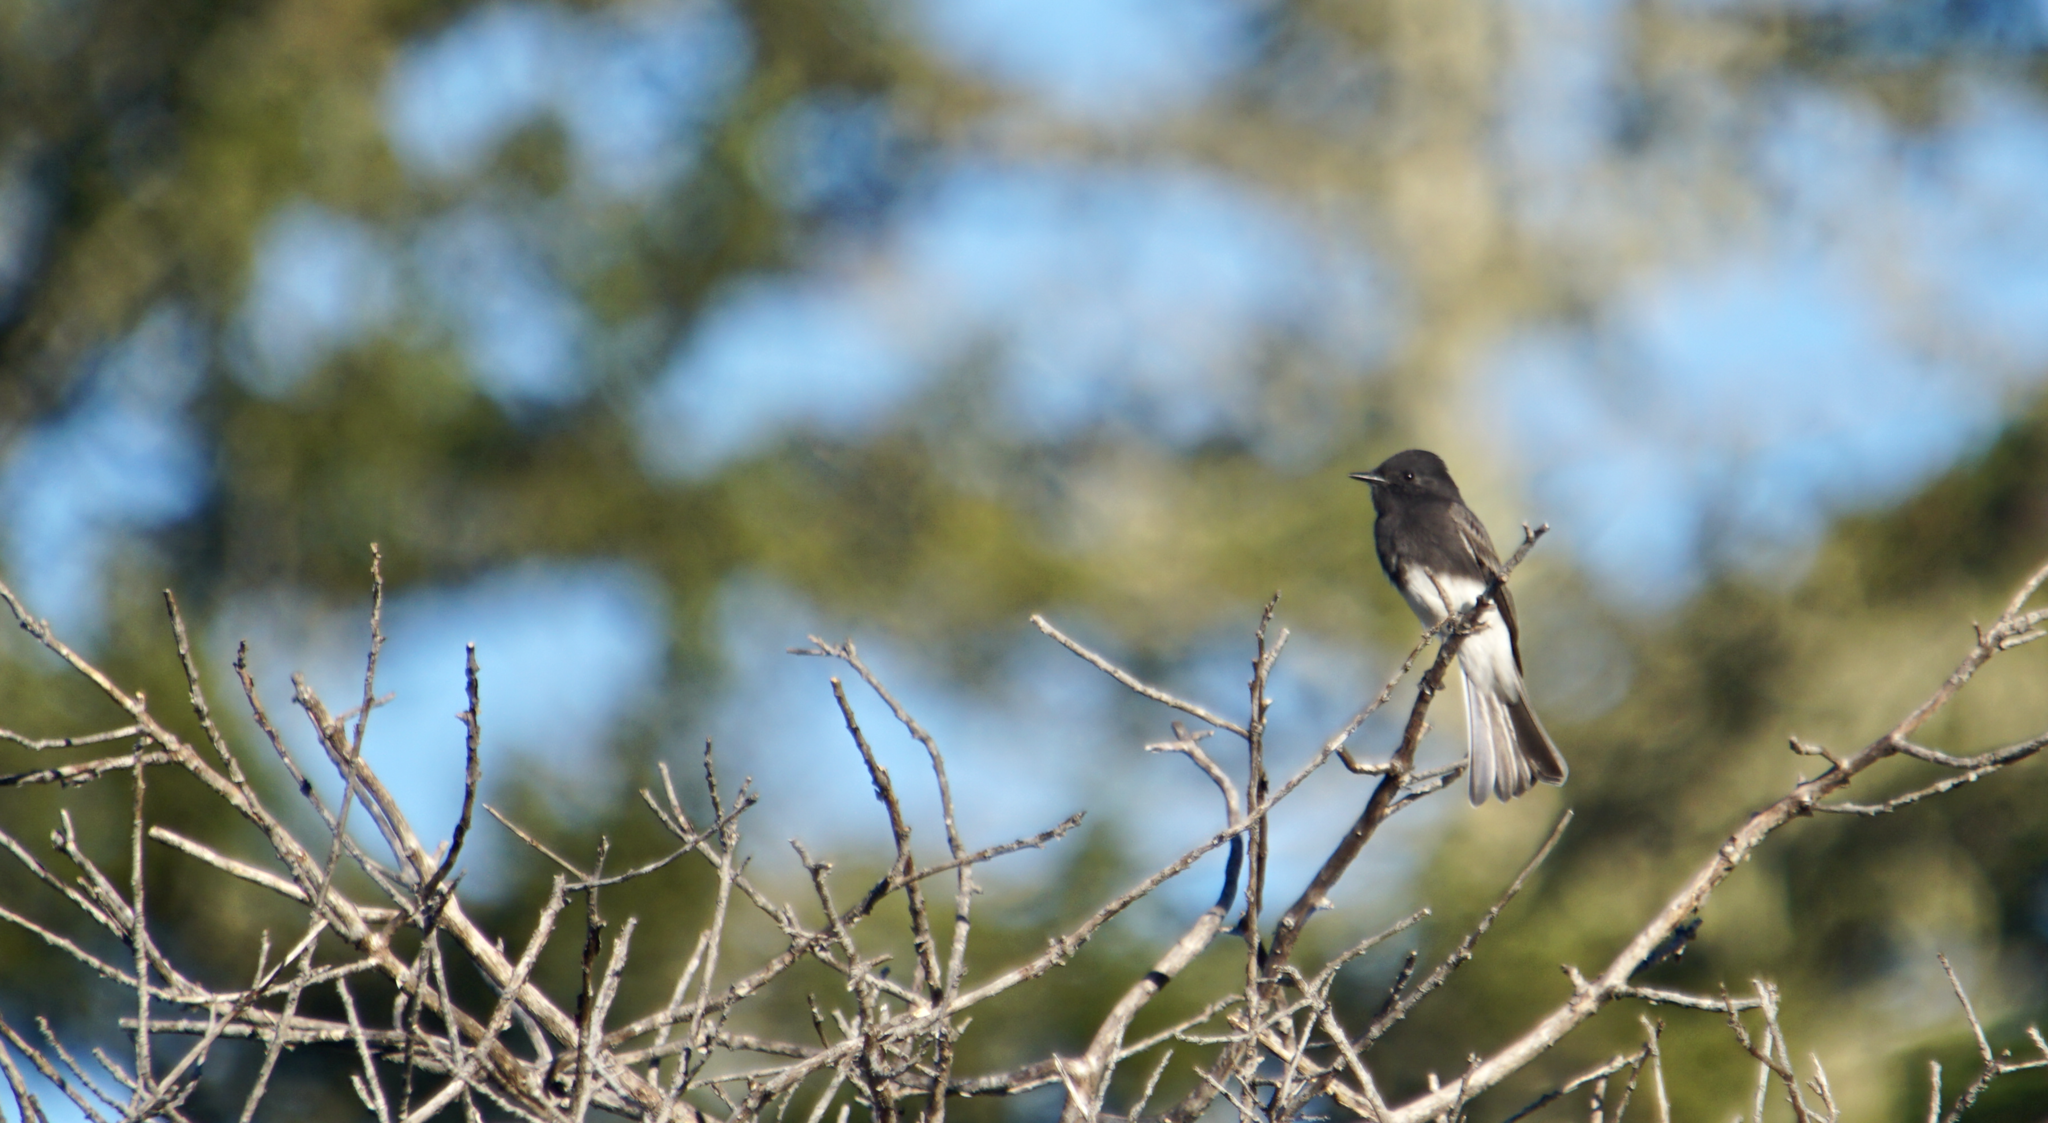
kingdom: Animalia
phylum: Chordata
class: Aves
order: Passeriformes
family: Tyrannidae
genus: Sayornis
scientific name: Sayornis nigricans
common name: Black phoebe
